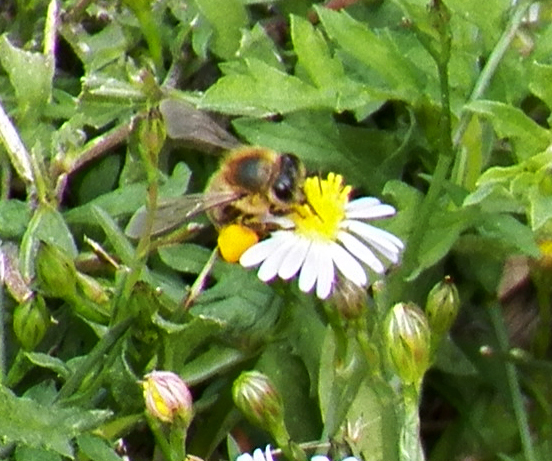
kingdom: Animalia
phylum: Arthropoda
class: Insecta
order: Hymenoptera
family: Apidae
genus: Apis
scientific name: Apis mellifera
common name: Honey bee
